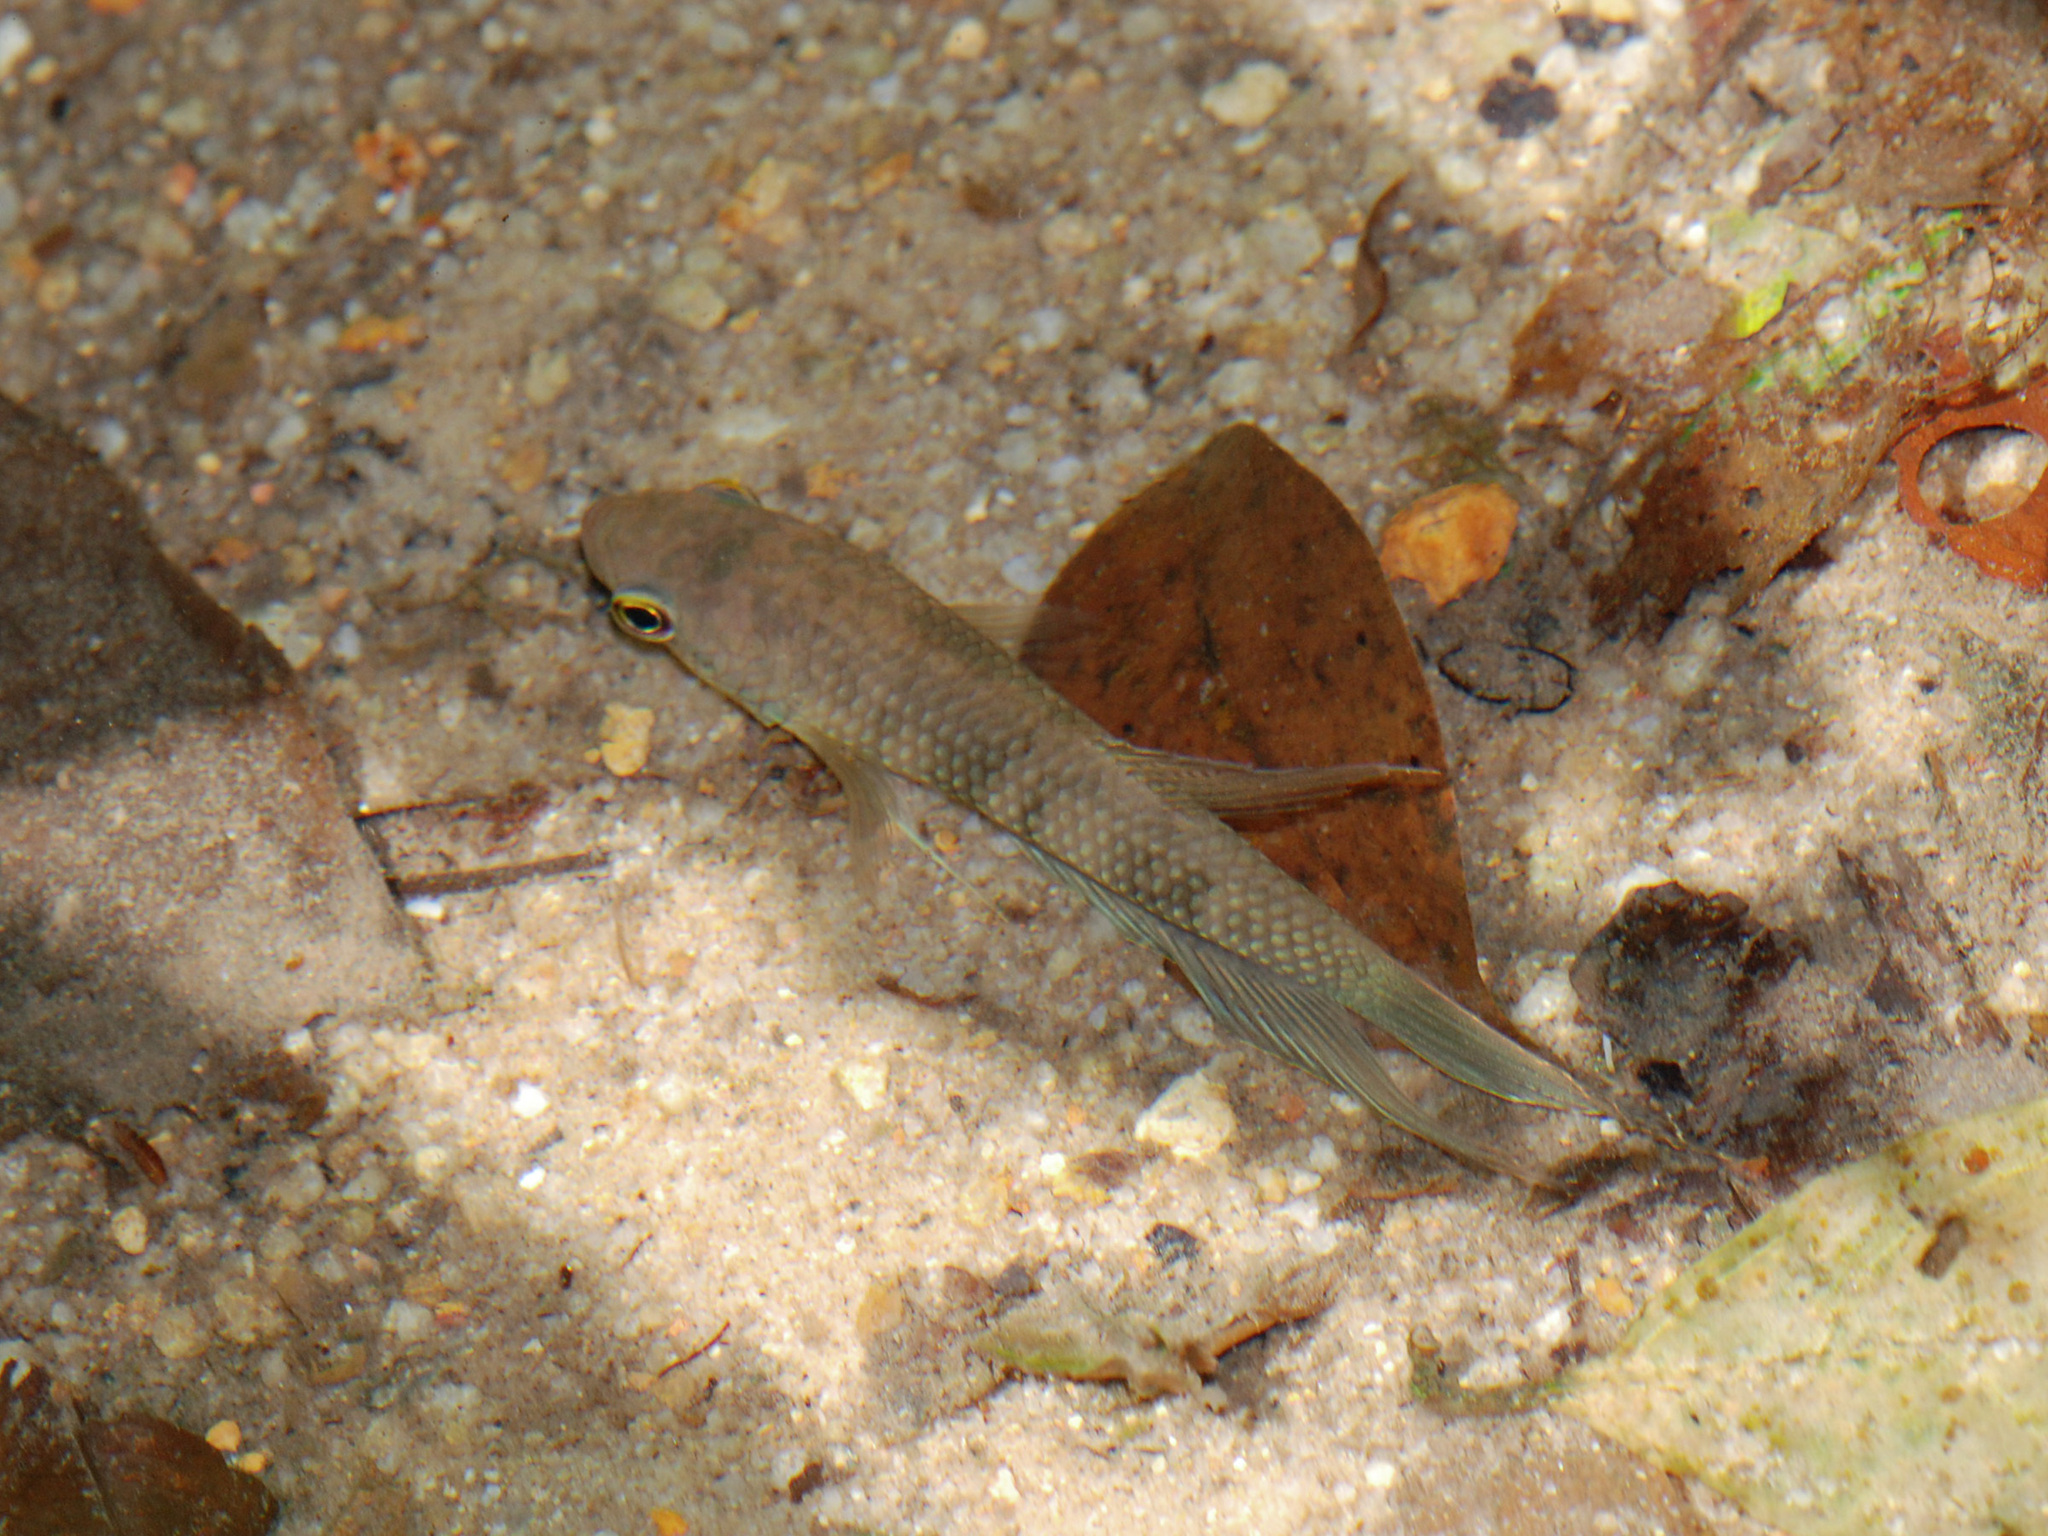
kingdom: Animalia
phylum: Chordata
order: Perciformes
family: Osphronemidae
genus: Betta
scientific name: Betta pugnax
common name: Penang betta
